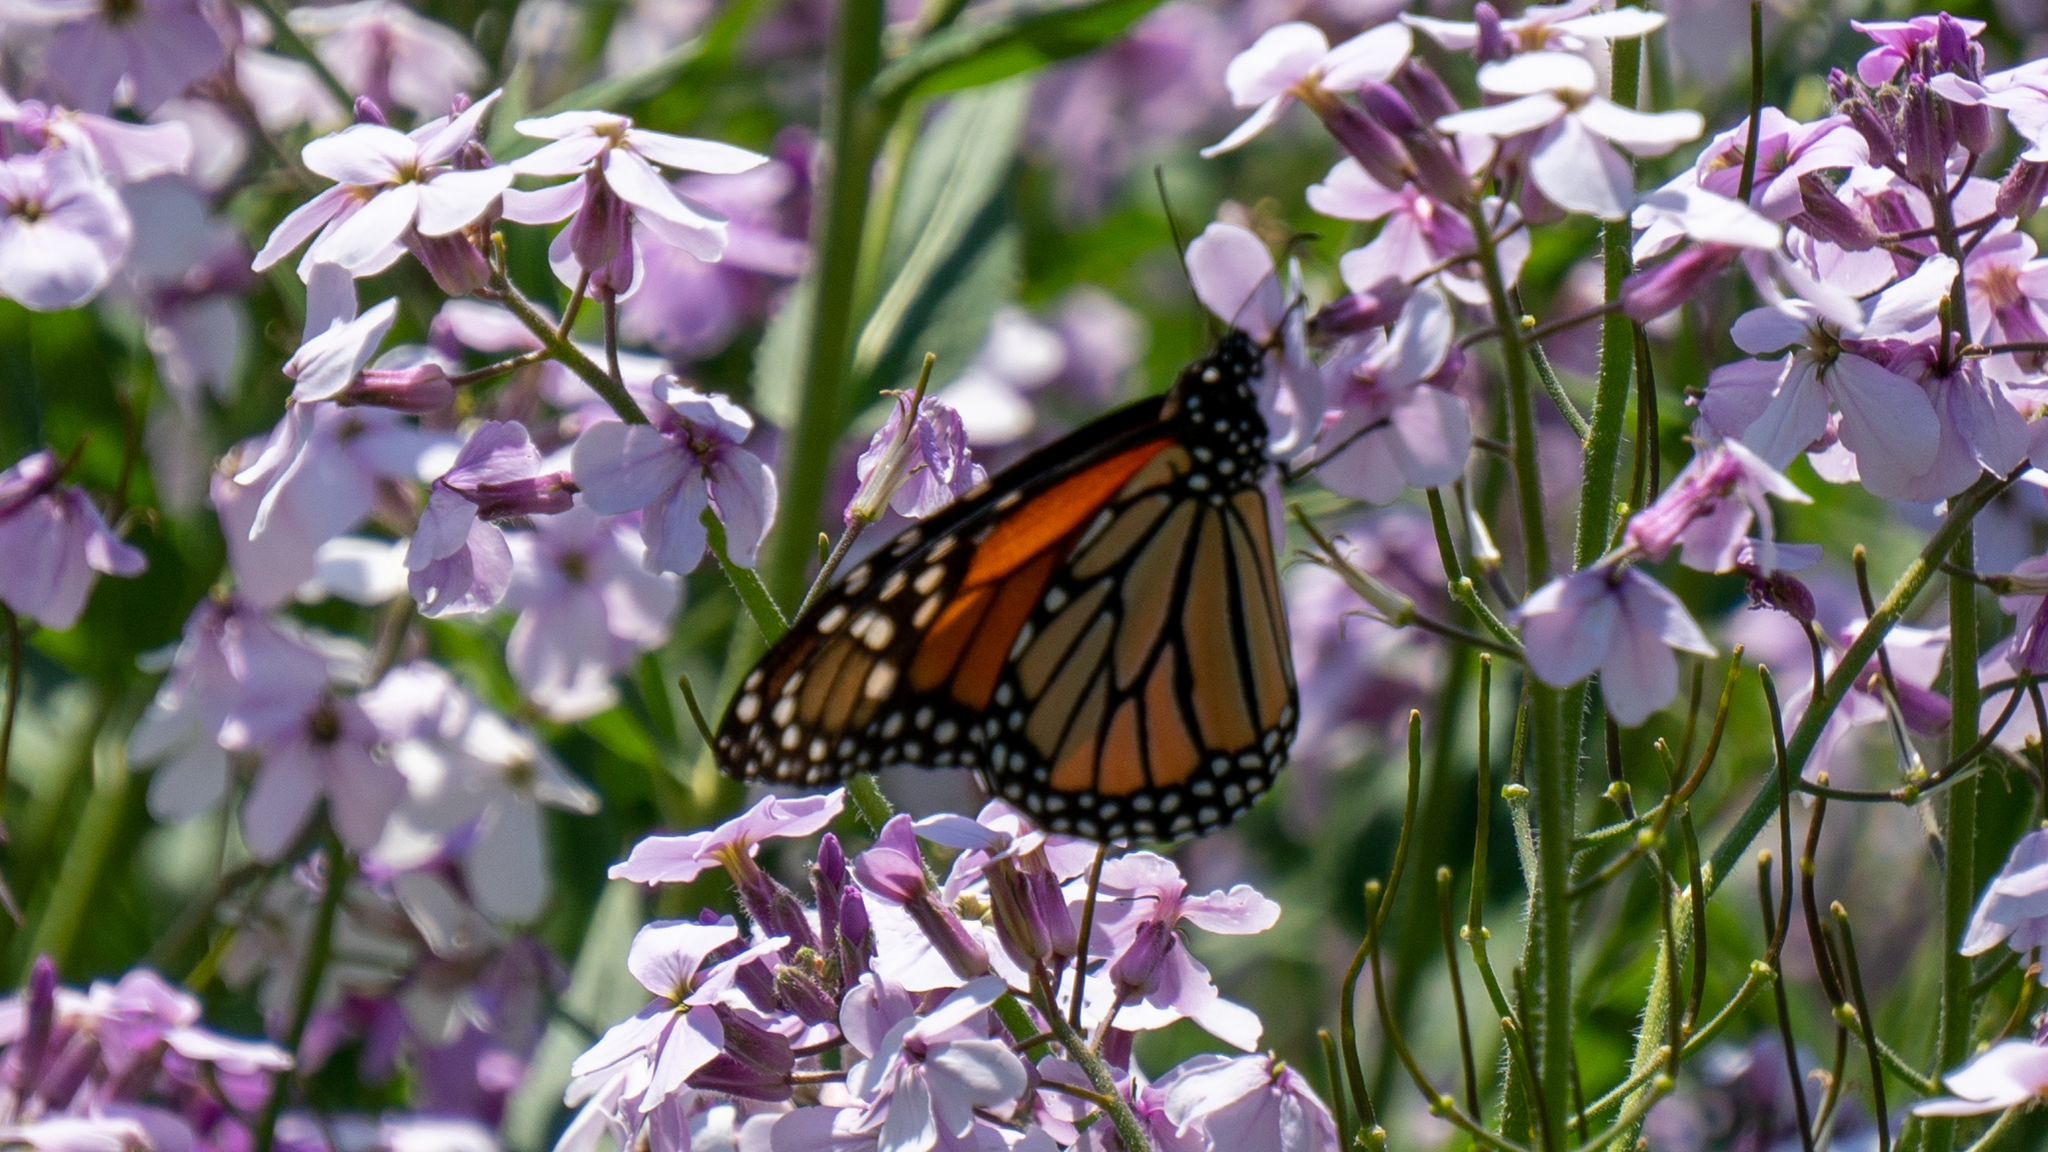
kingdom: Animalia
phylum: Arthropoda
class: Insecta
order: Lepidoptera
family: Nymphalidae
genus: Danaus
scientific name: Danaus plexippus
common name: Monarch
